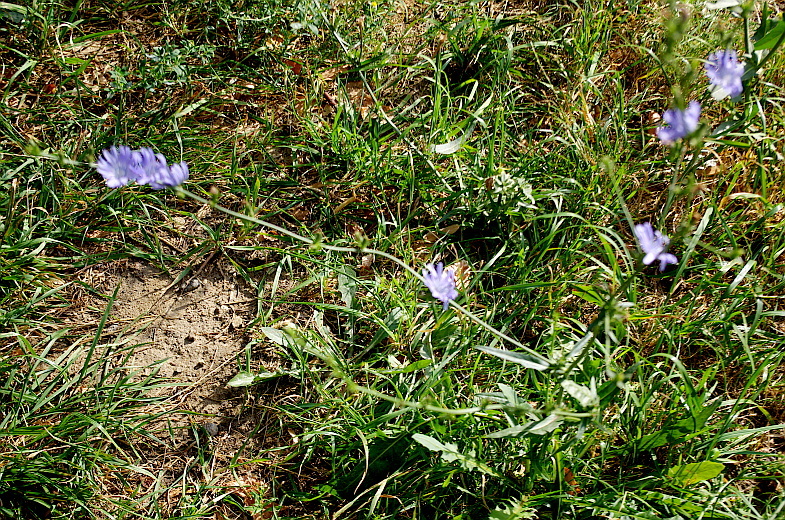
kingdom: Plantae
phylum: Tracheophyta
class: Magnoliopsida
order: Asterales
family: Asteraceae
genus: Cichorium
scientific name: Cichorium intybus
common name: Chicory
